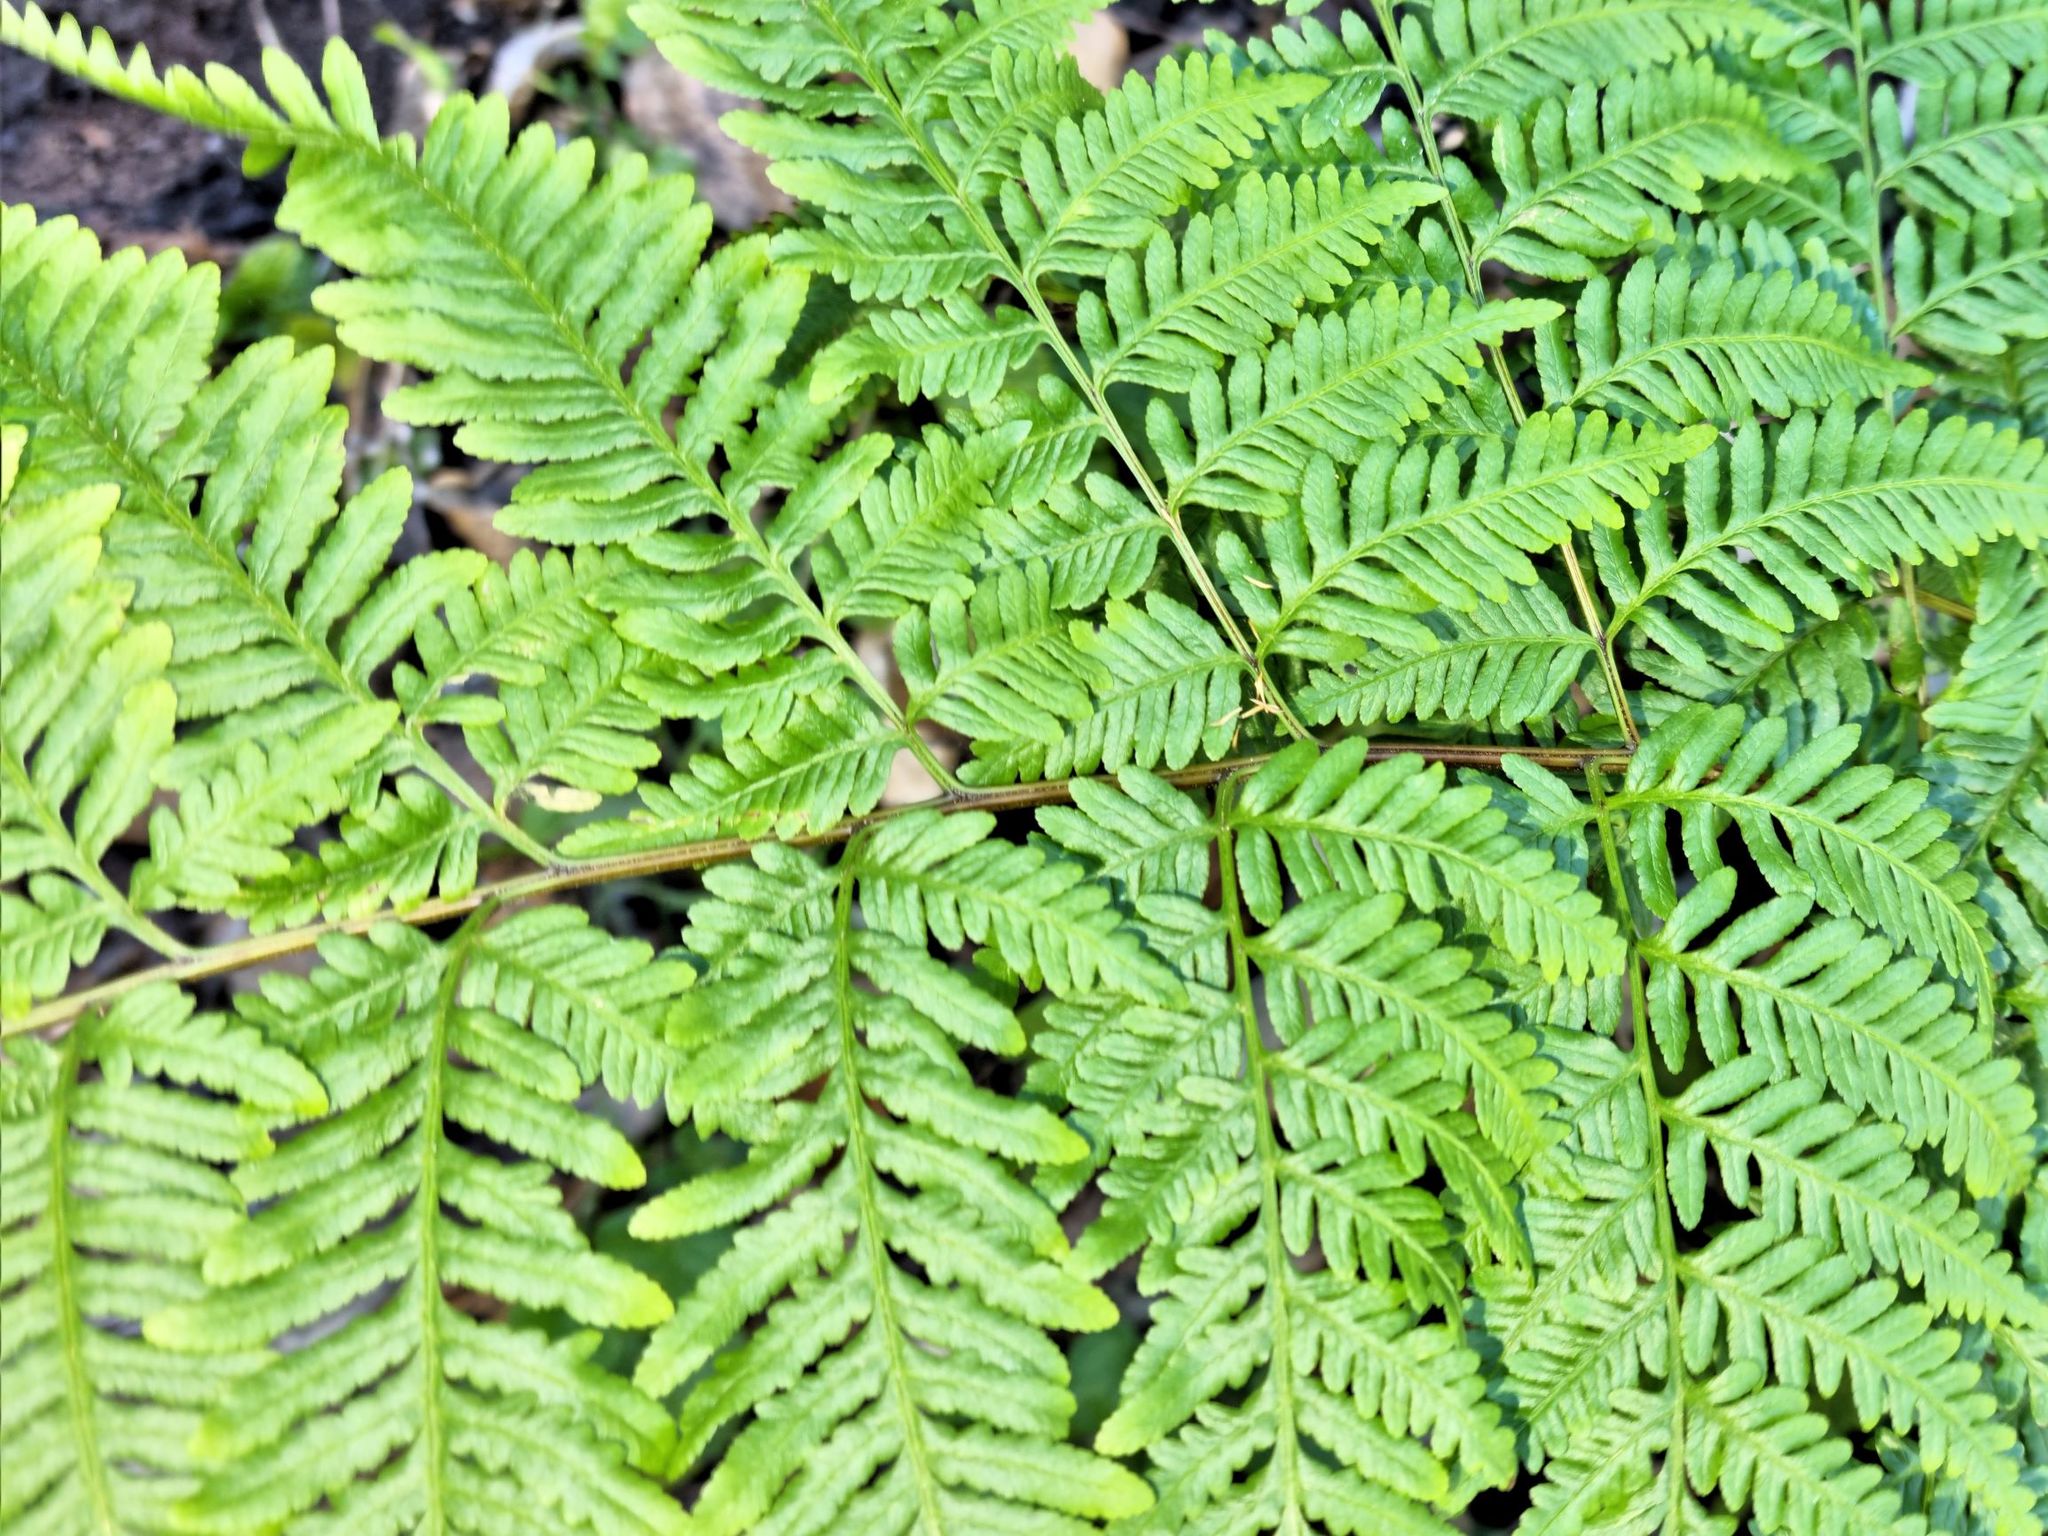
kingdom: Plantae
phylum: Tracheophyta
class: Polypodiopsida
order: Polypodiales
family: Pteridaceae
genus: Pteris
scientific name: Pteris tremula
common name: Australian brake
